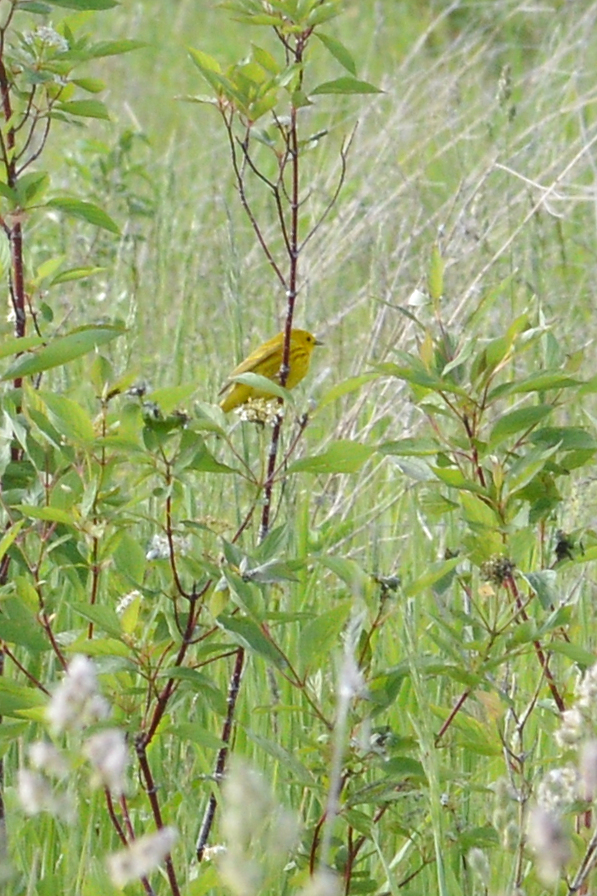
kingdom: Animalia
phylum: Chordata
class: Aves
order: Passeriformes
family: Parulidae
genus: Setophaga
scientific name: Setophaga petechia
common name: Yellow warbler
